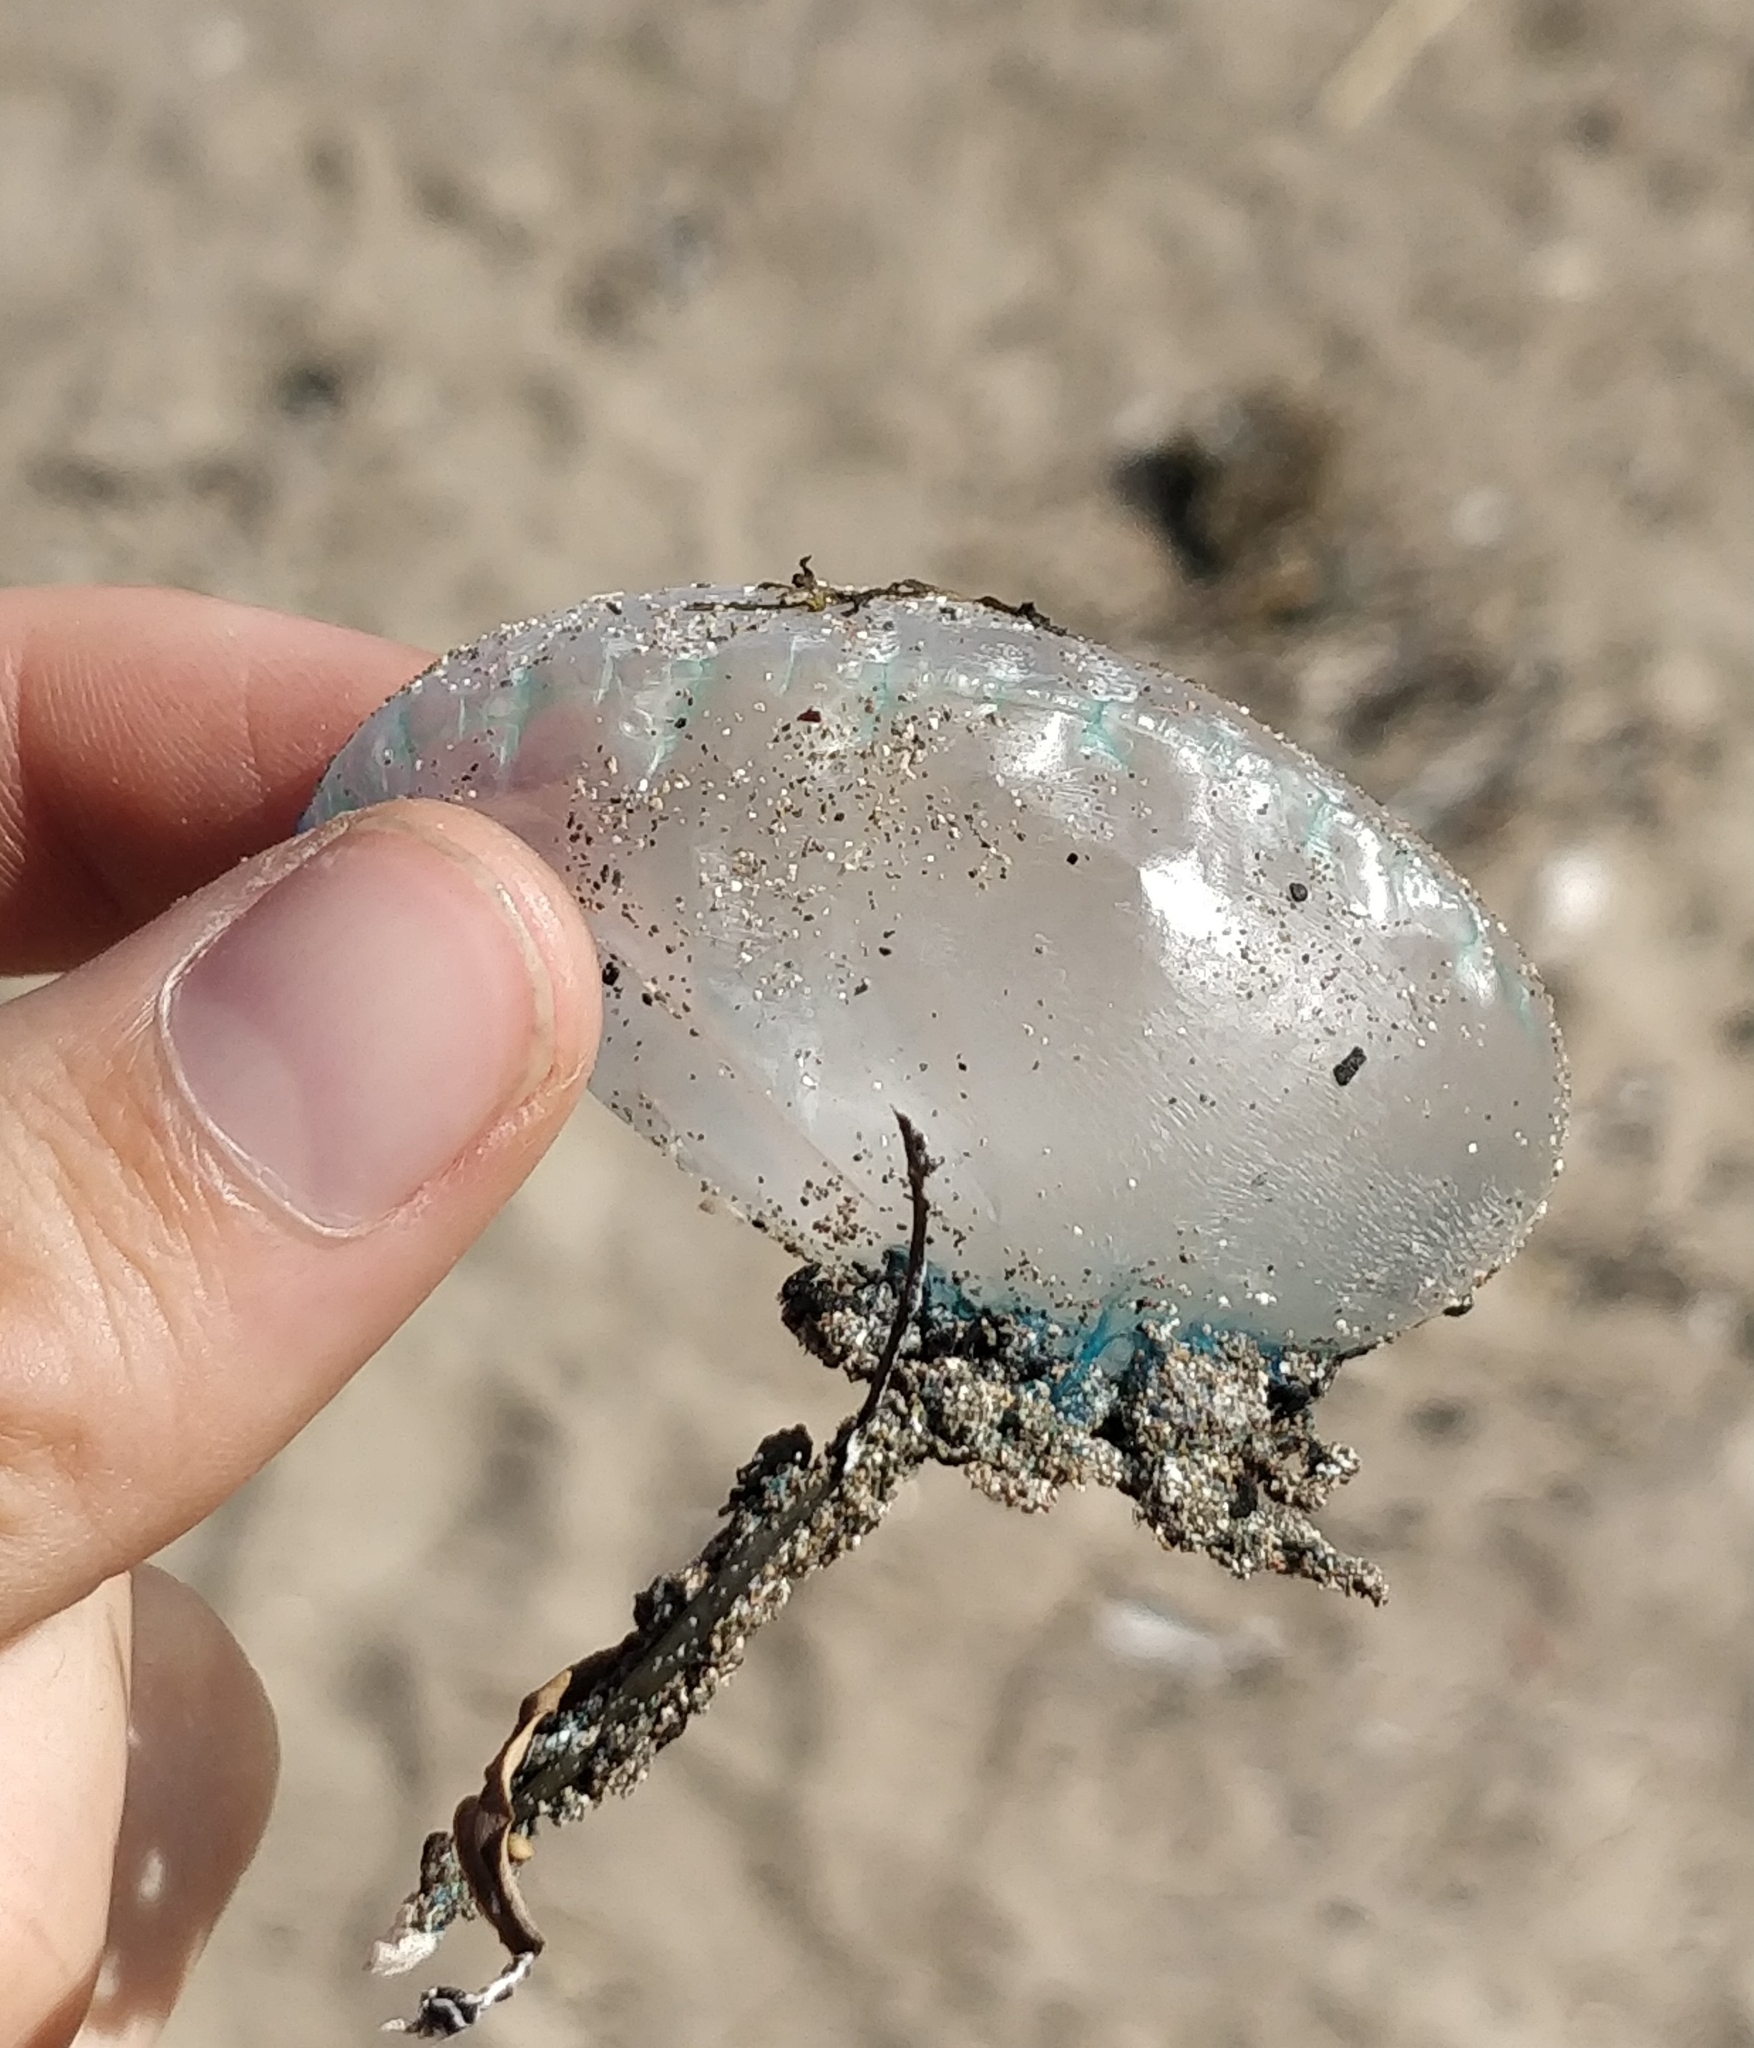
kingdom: Animalia
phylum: Cnidaria
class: Hydrozoa
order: Siphonophorae
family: Physaliidae
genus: Physalia
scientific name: Physalia physalis
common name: Portuguese man-of-war
